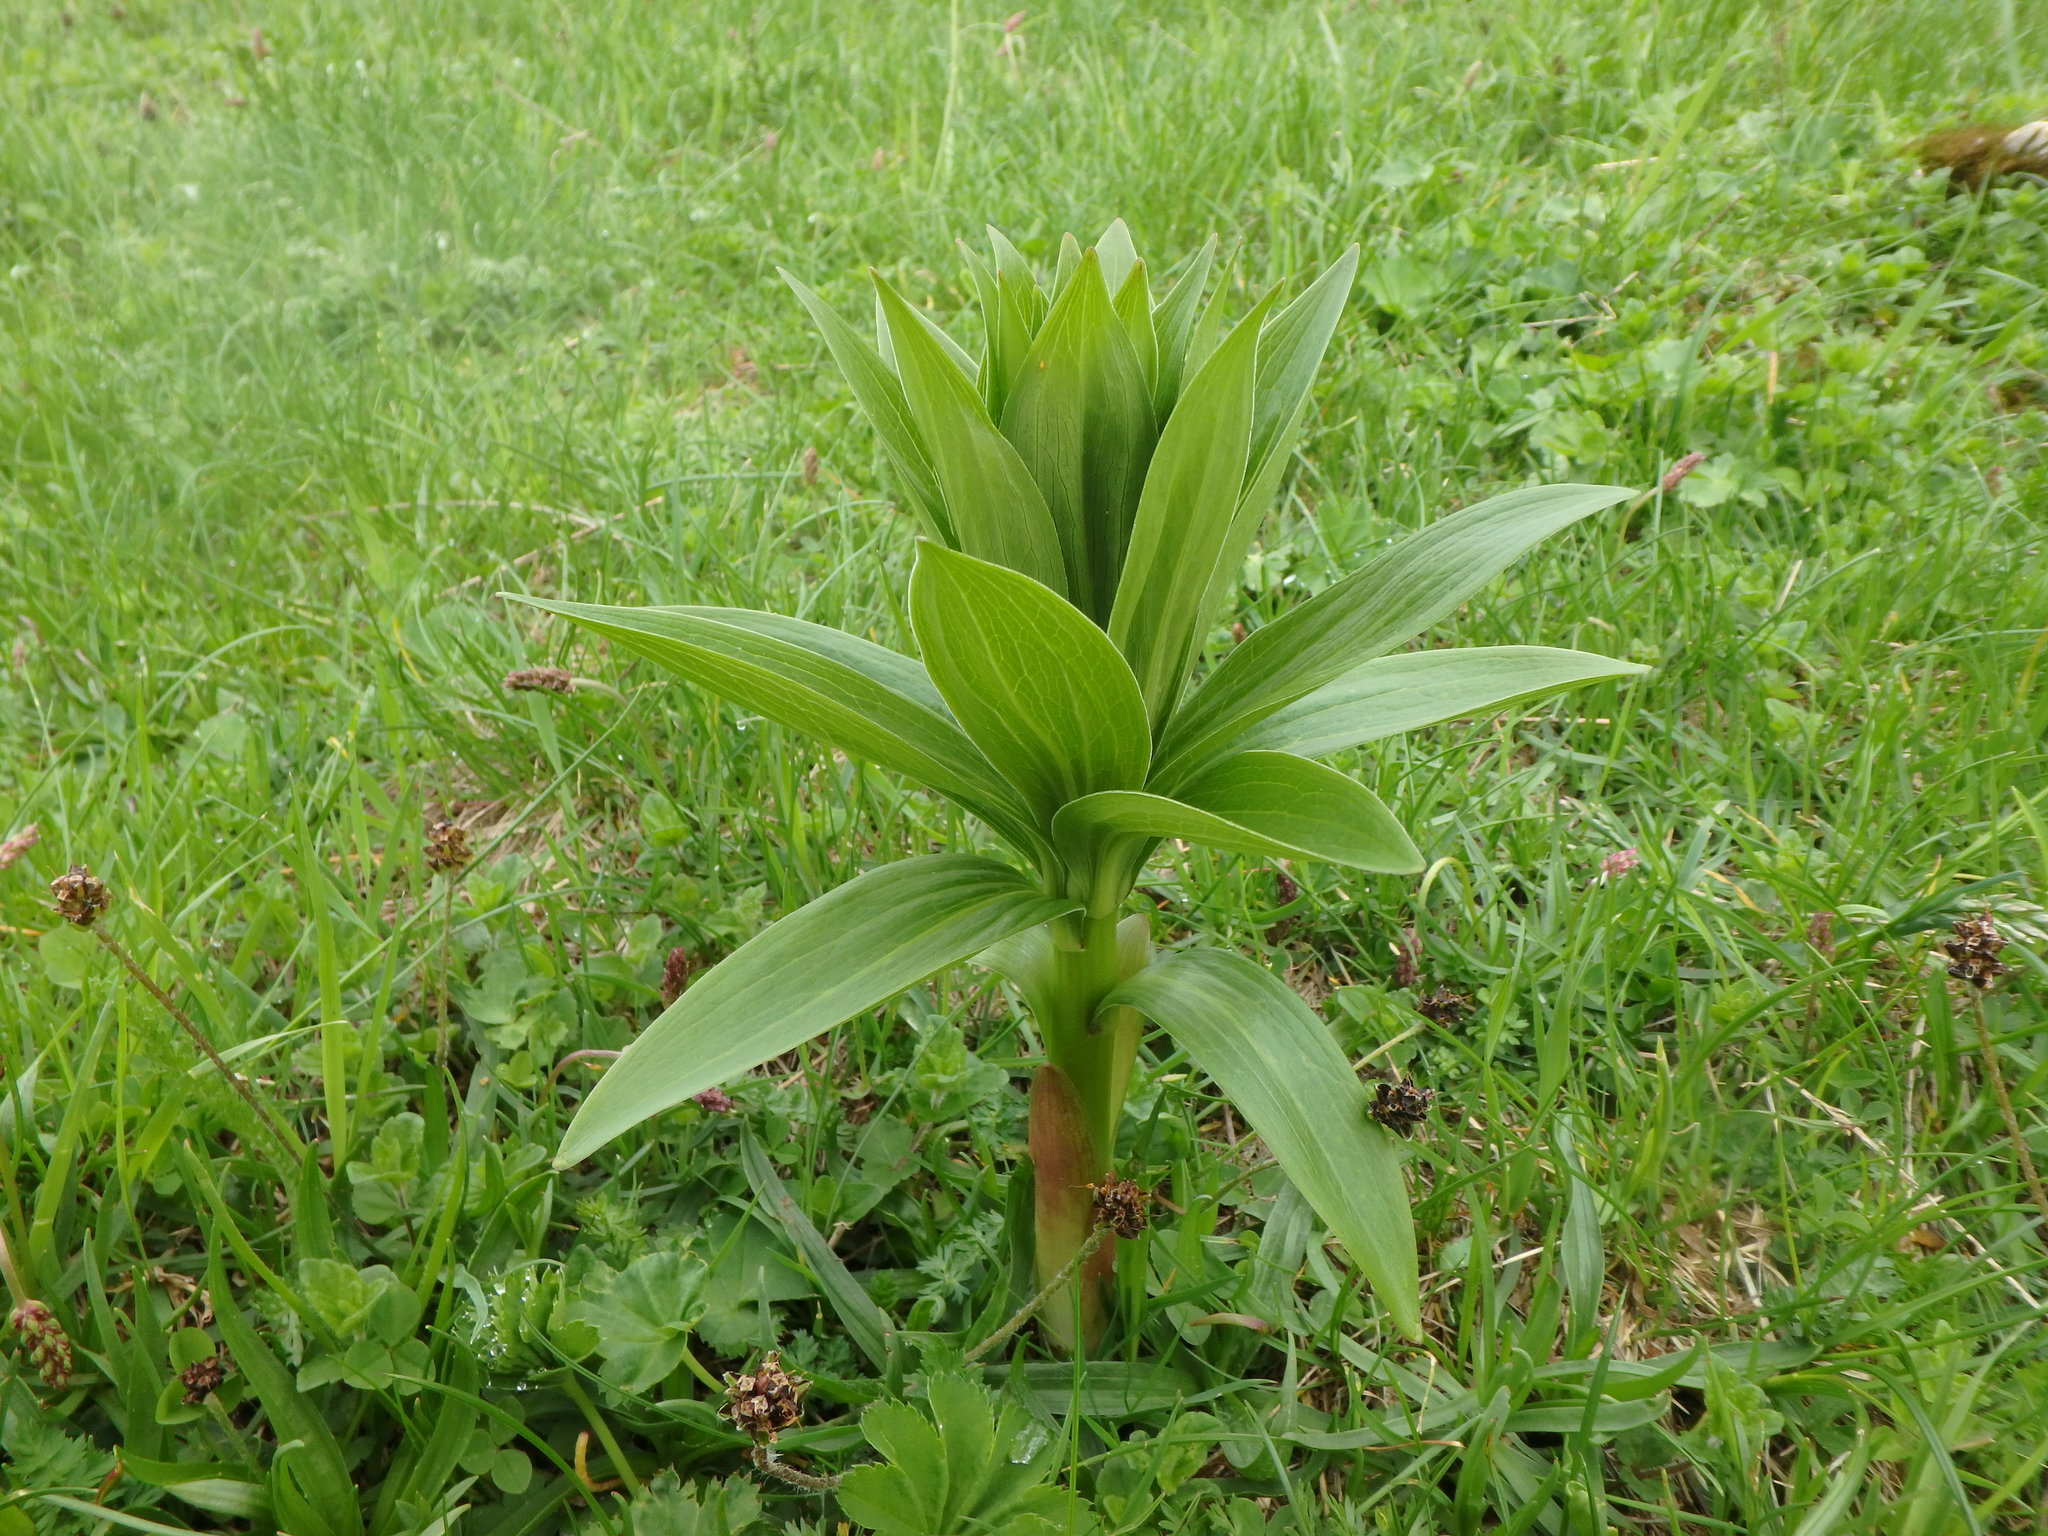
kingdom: Plantae
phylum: Tracheophyta
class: Liliopsida
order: Liliales
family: Liliaceae
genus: Lilium
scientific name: Lilium martagon
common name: Martagon lily
